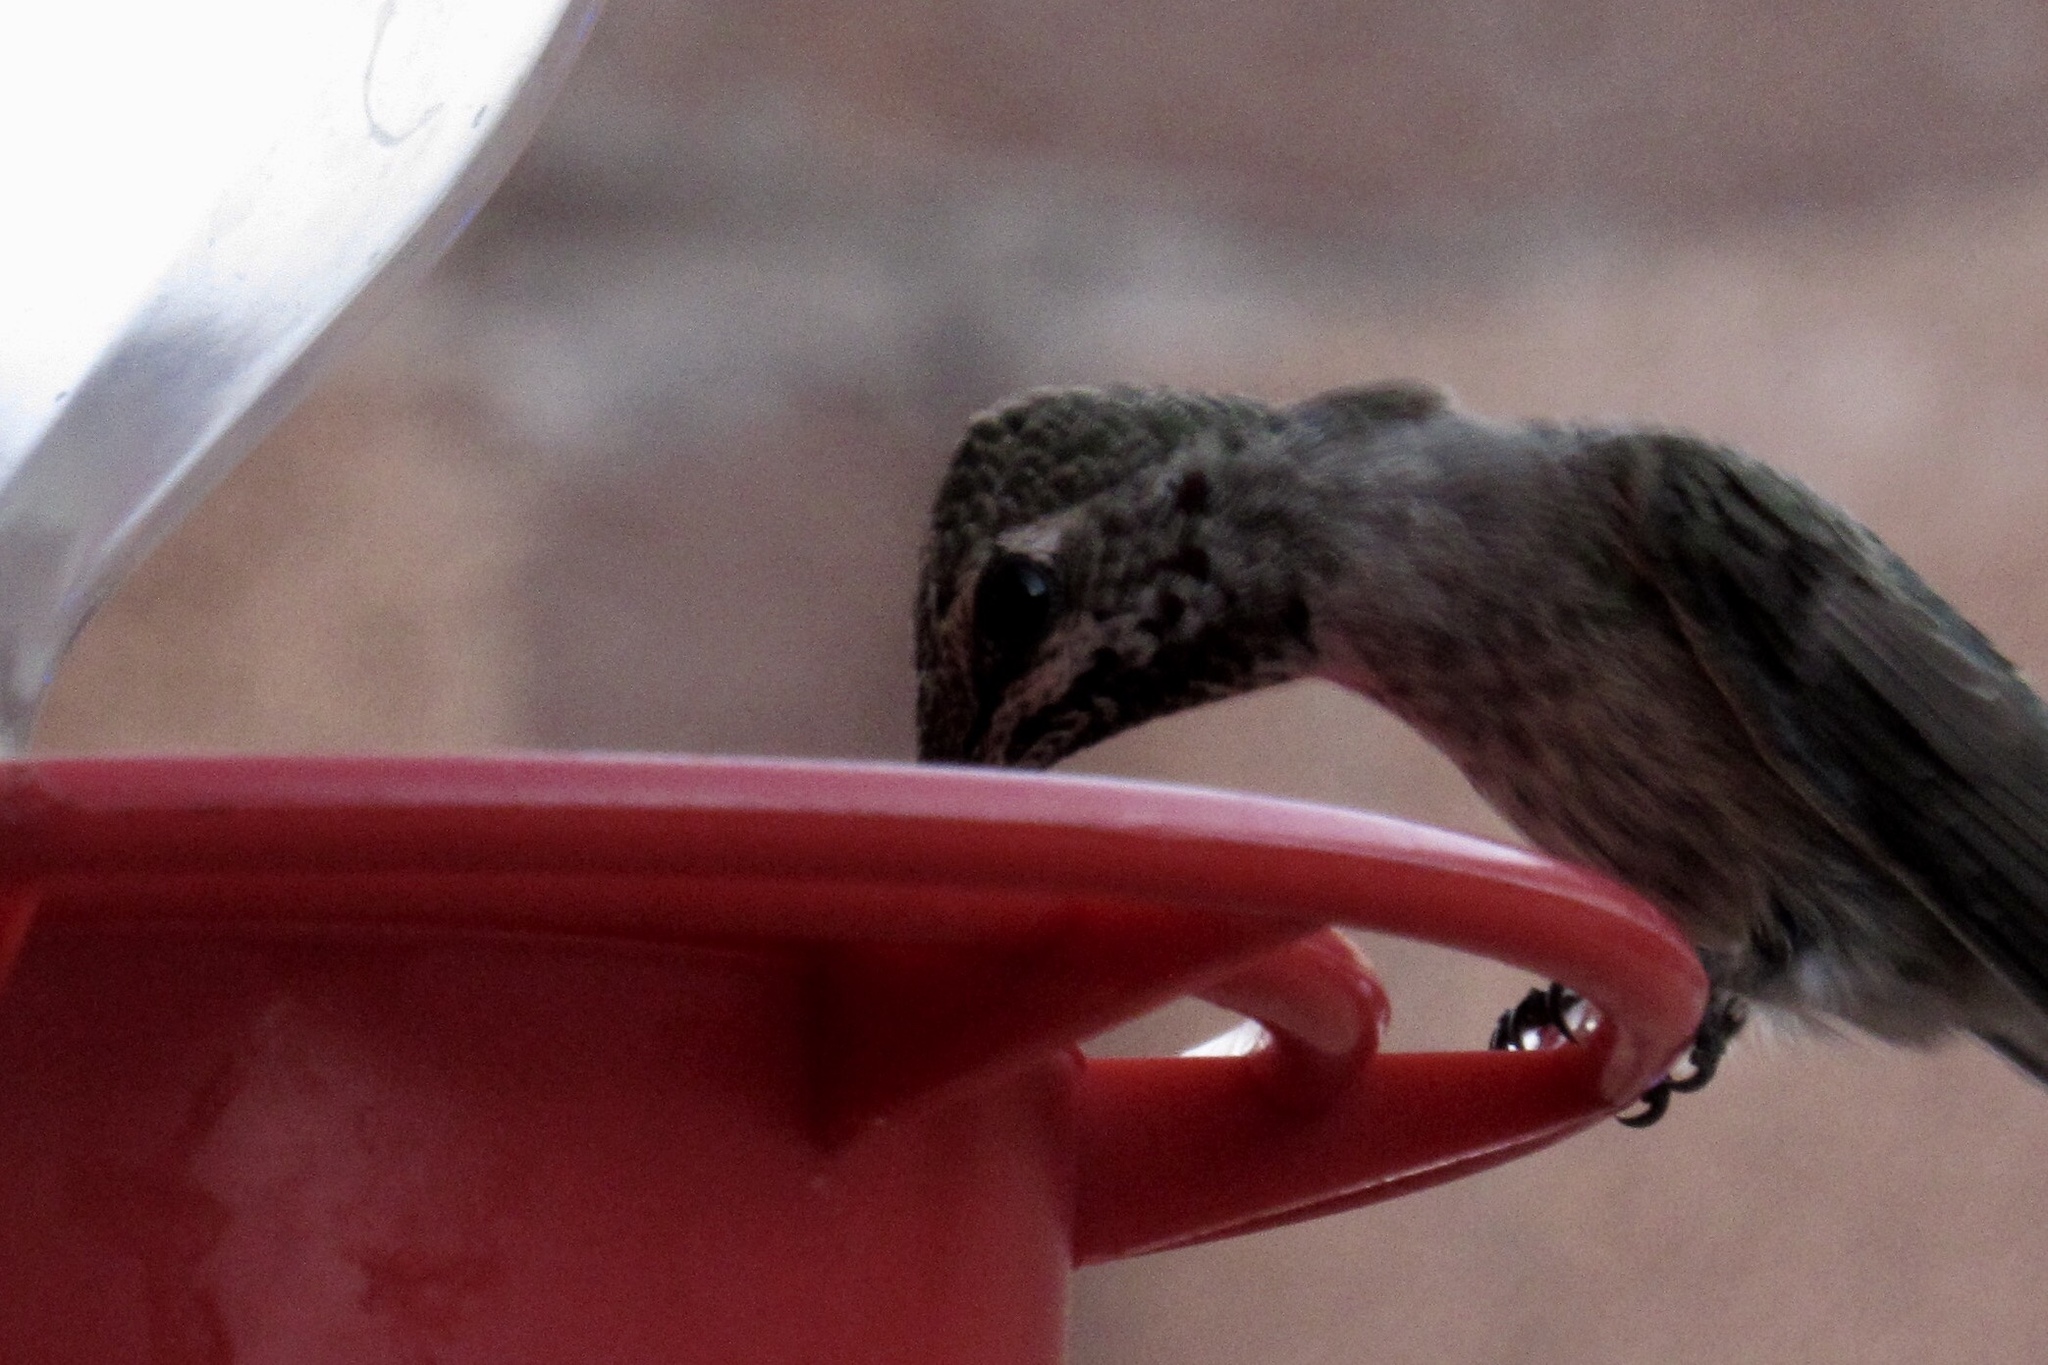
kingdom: Animalia
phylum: Chordata
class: Aves
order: Apodiformes
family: Trochilidae
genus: Calypte
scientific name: Calypte anna
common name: Anna's hummingbird
